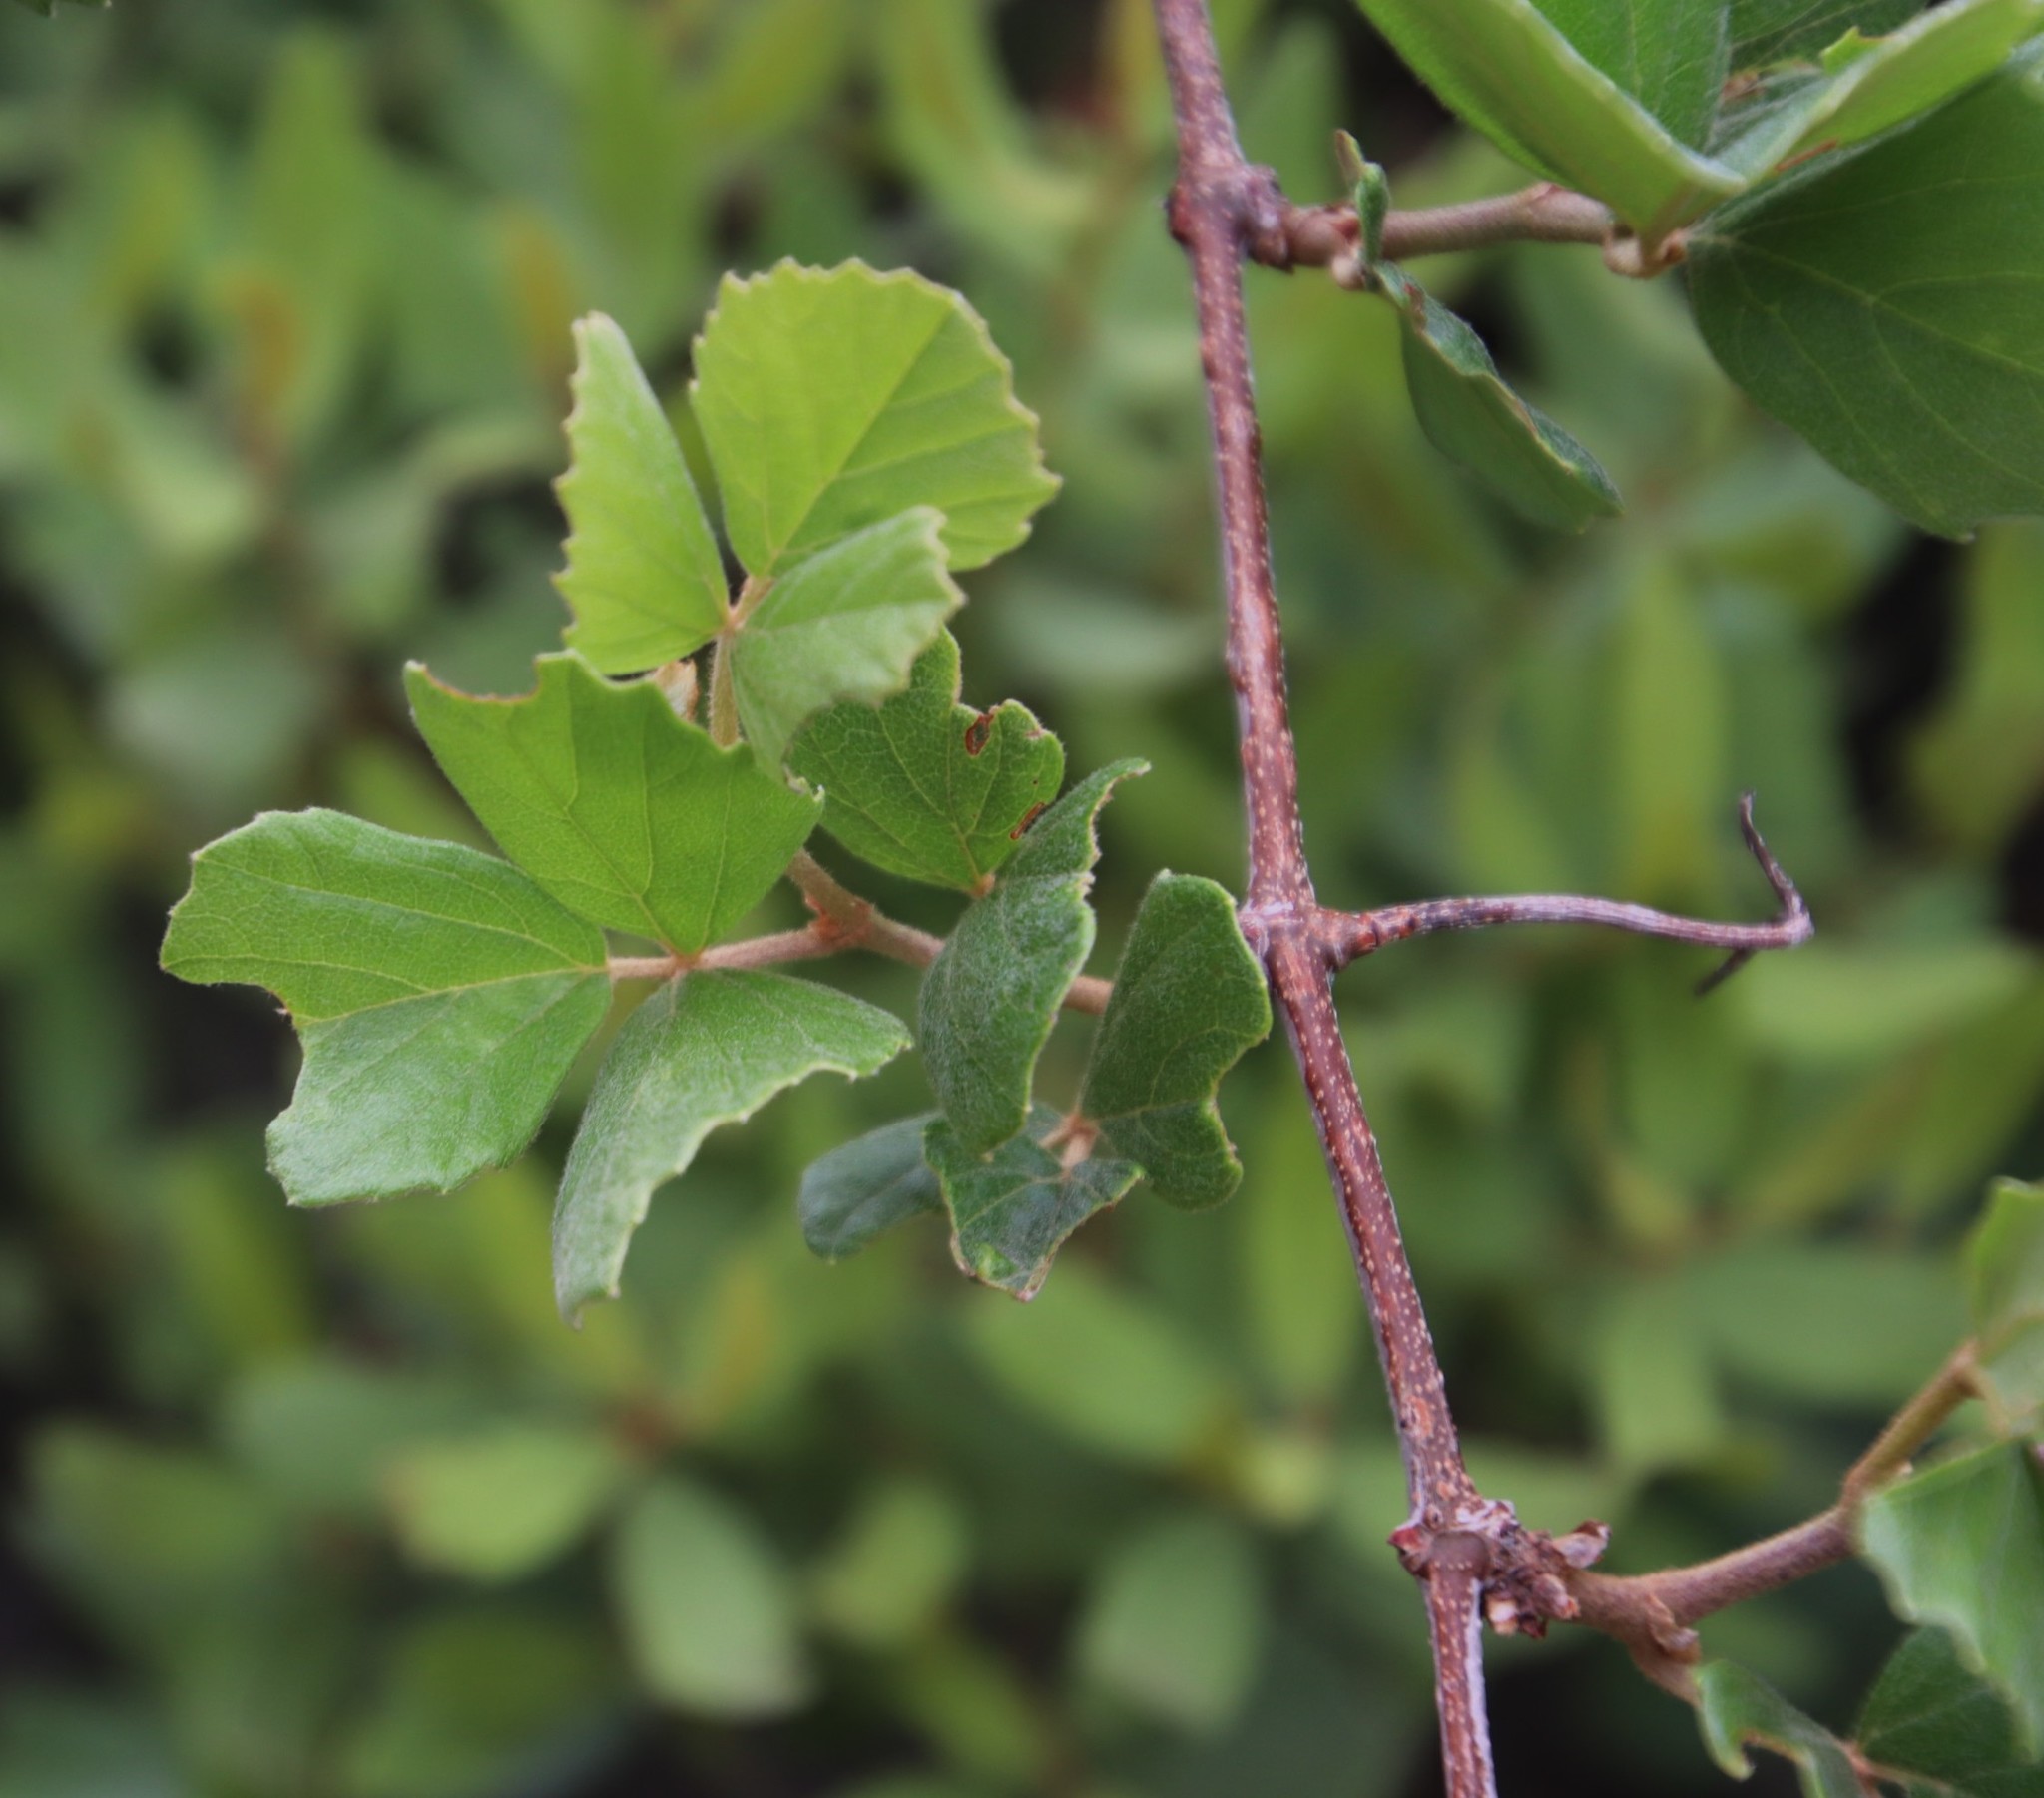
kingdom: Plantae
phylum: Tracheophyta
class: Magnoliopsida
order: Vitales
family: Vitaceae
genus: Rhoicissus
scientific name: Rhoicissus tridentata
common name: Common forest grape
